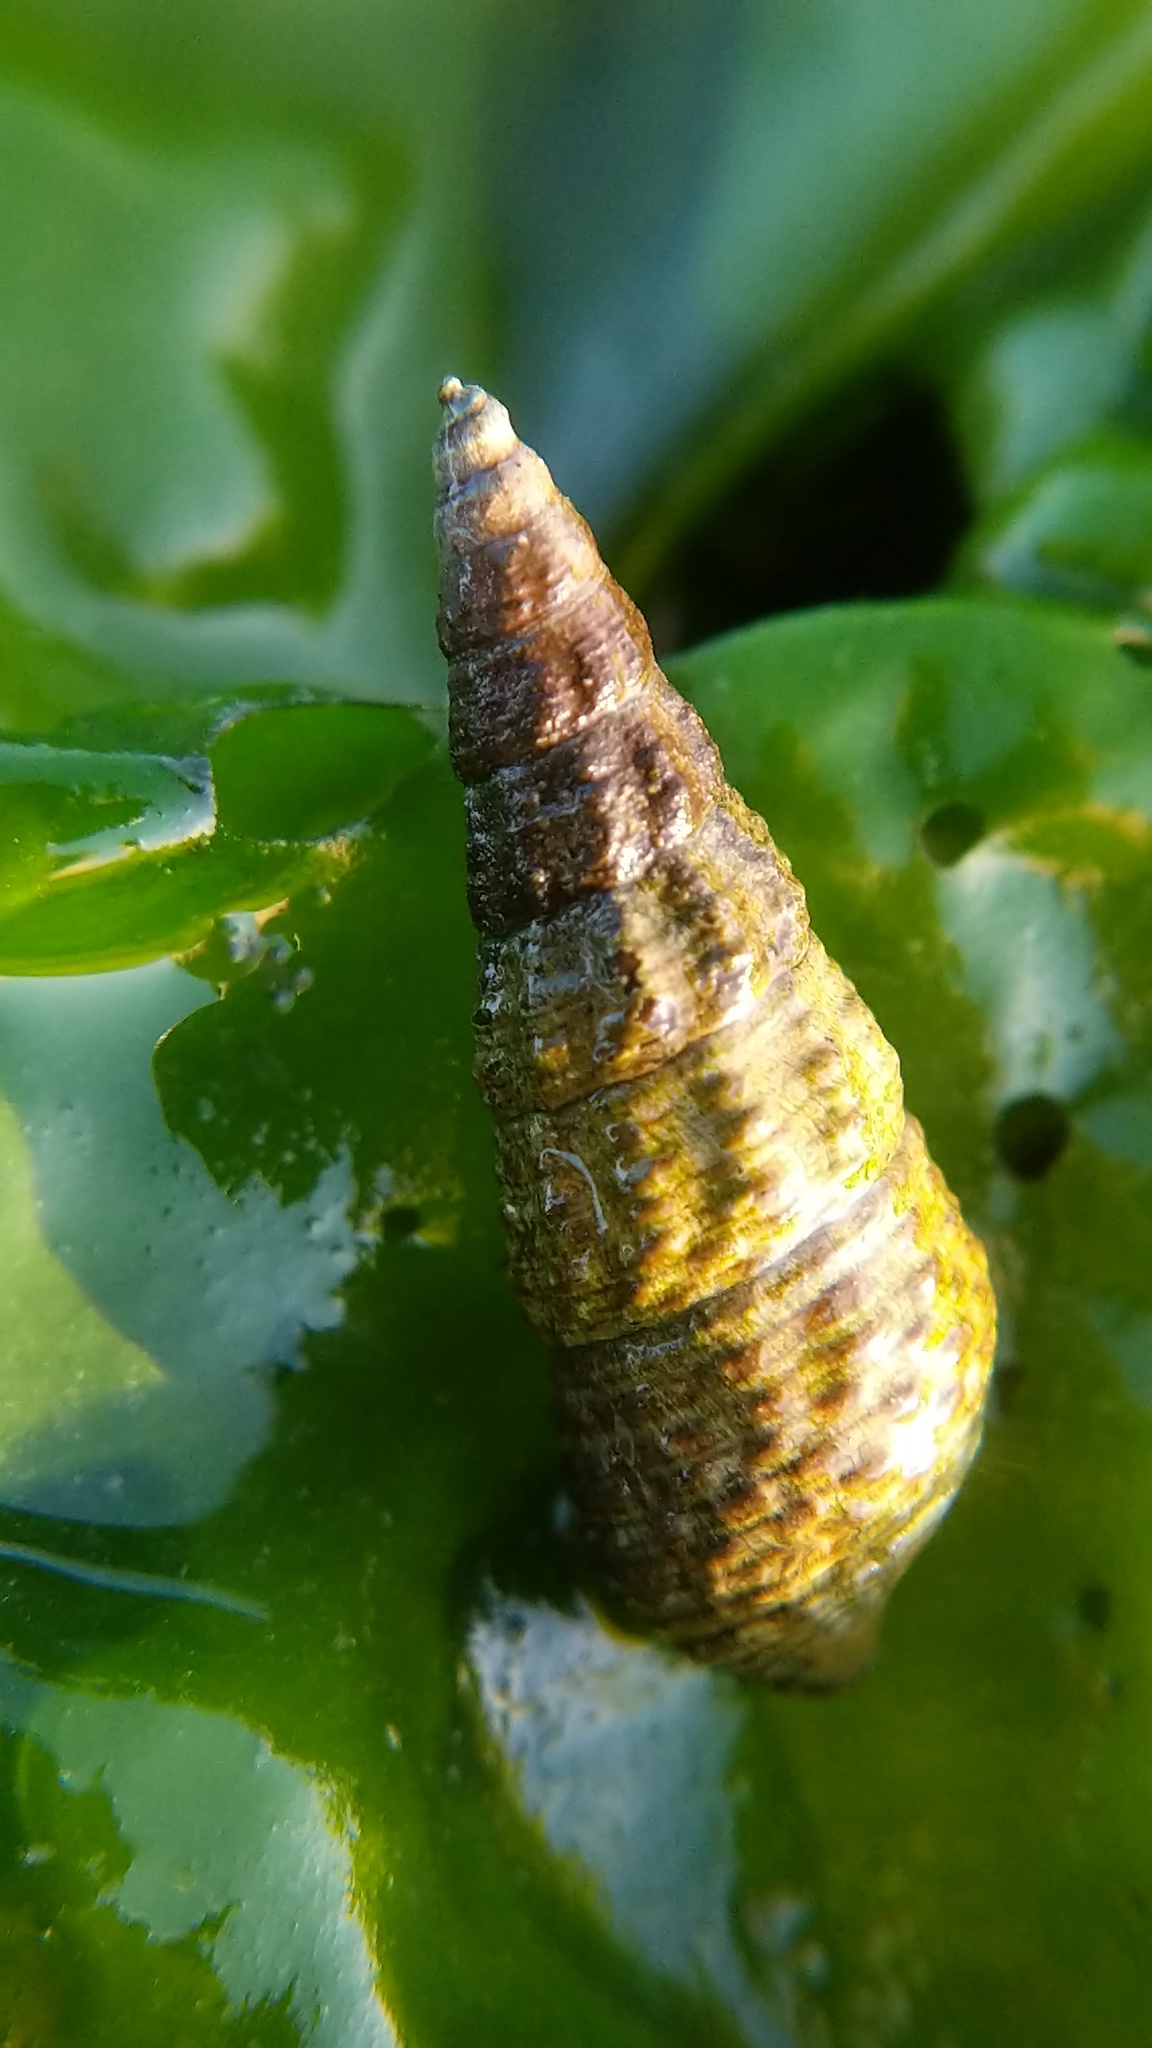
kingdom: Animalia
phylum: Mollusca
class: Gastropoda
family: Batillariidae
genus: Batillaria
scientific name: Batillaria attramentaria
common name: Japanese false cerith
